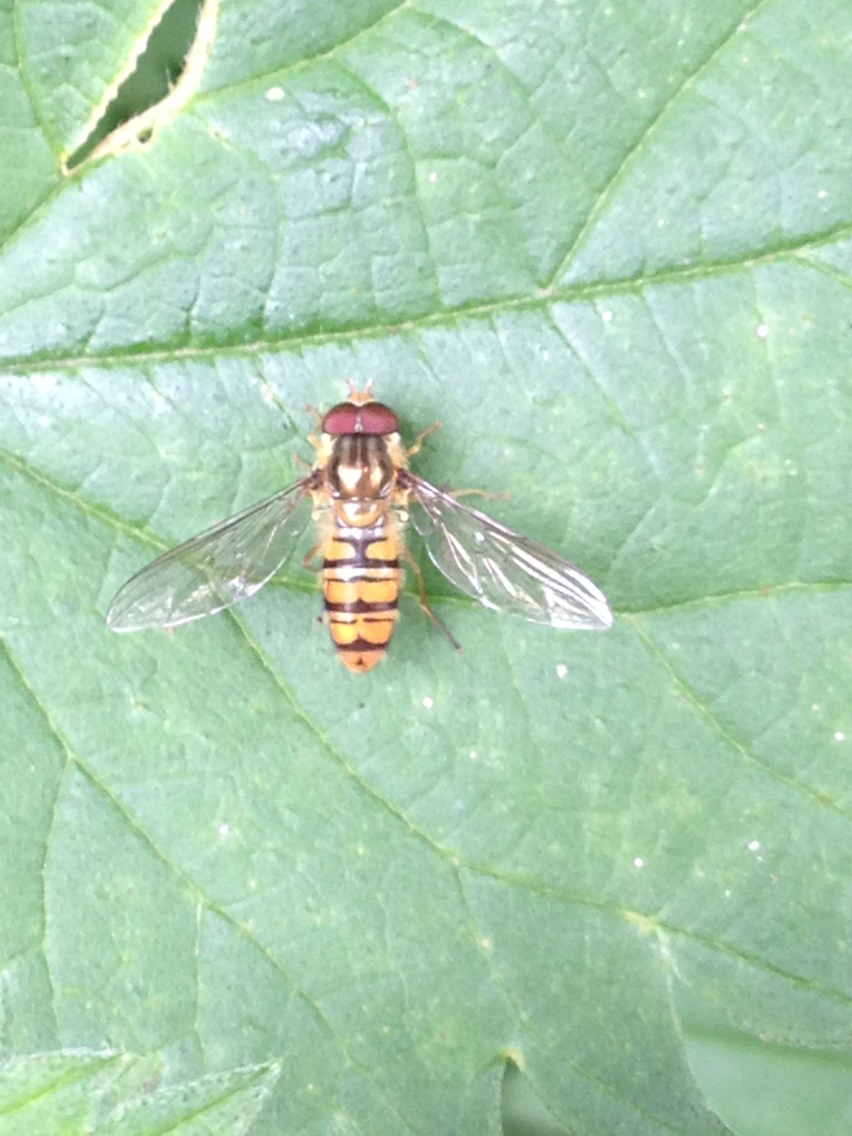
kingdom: Animalia
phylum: Arthropoda
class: Insecta
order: Diptera
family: Syrphidae
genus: Episyrphus
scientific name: Episyrphus balteatus
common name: Marmalade hoverfly
